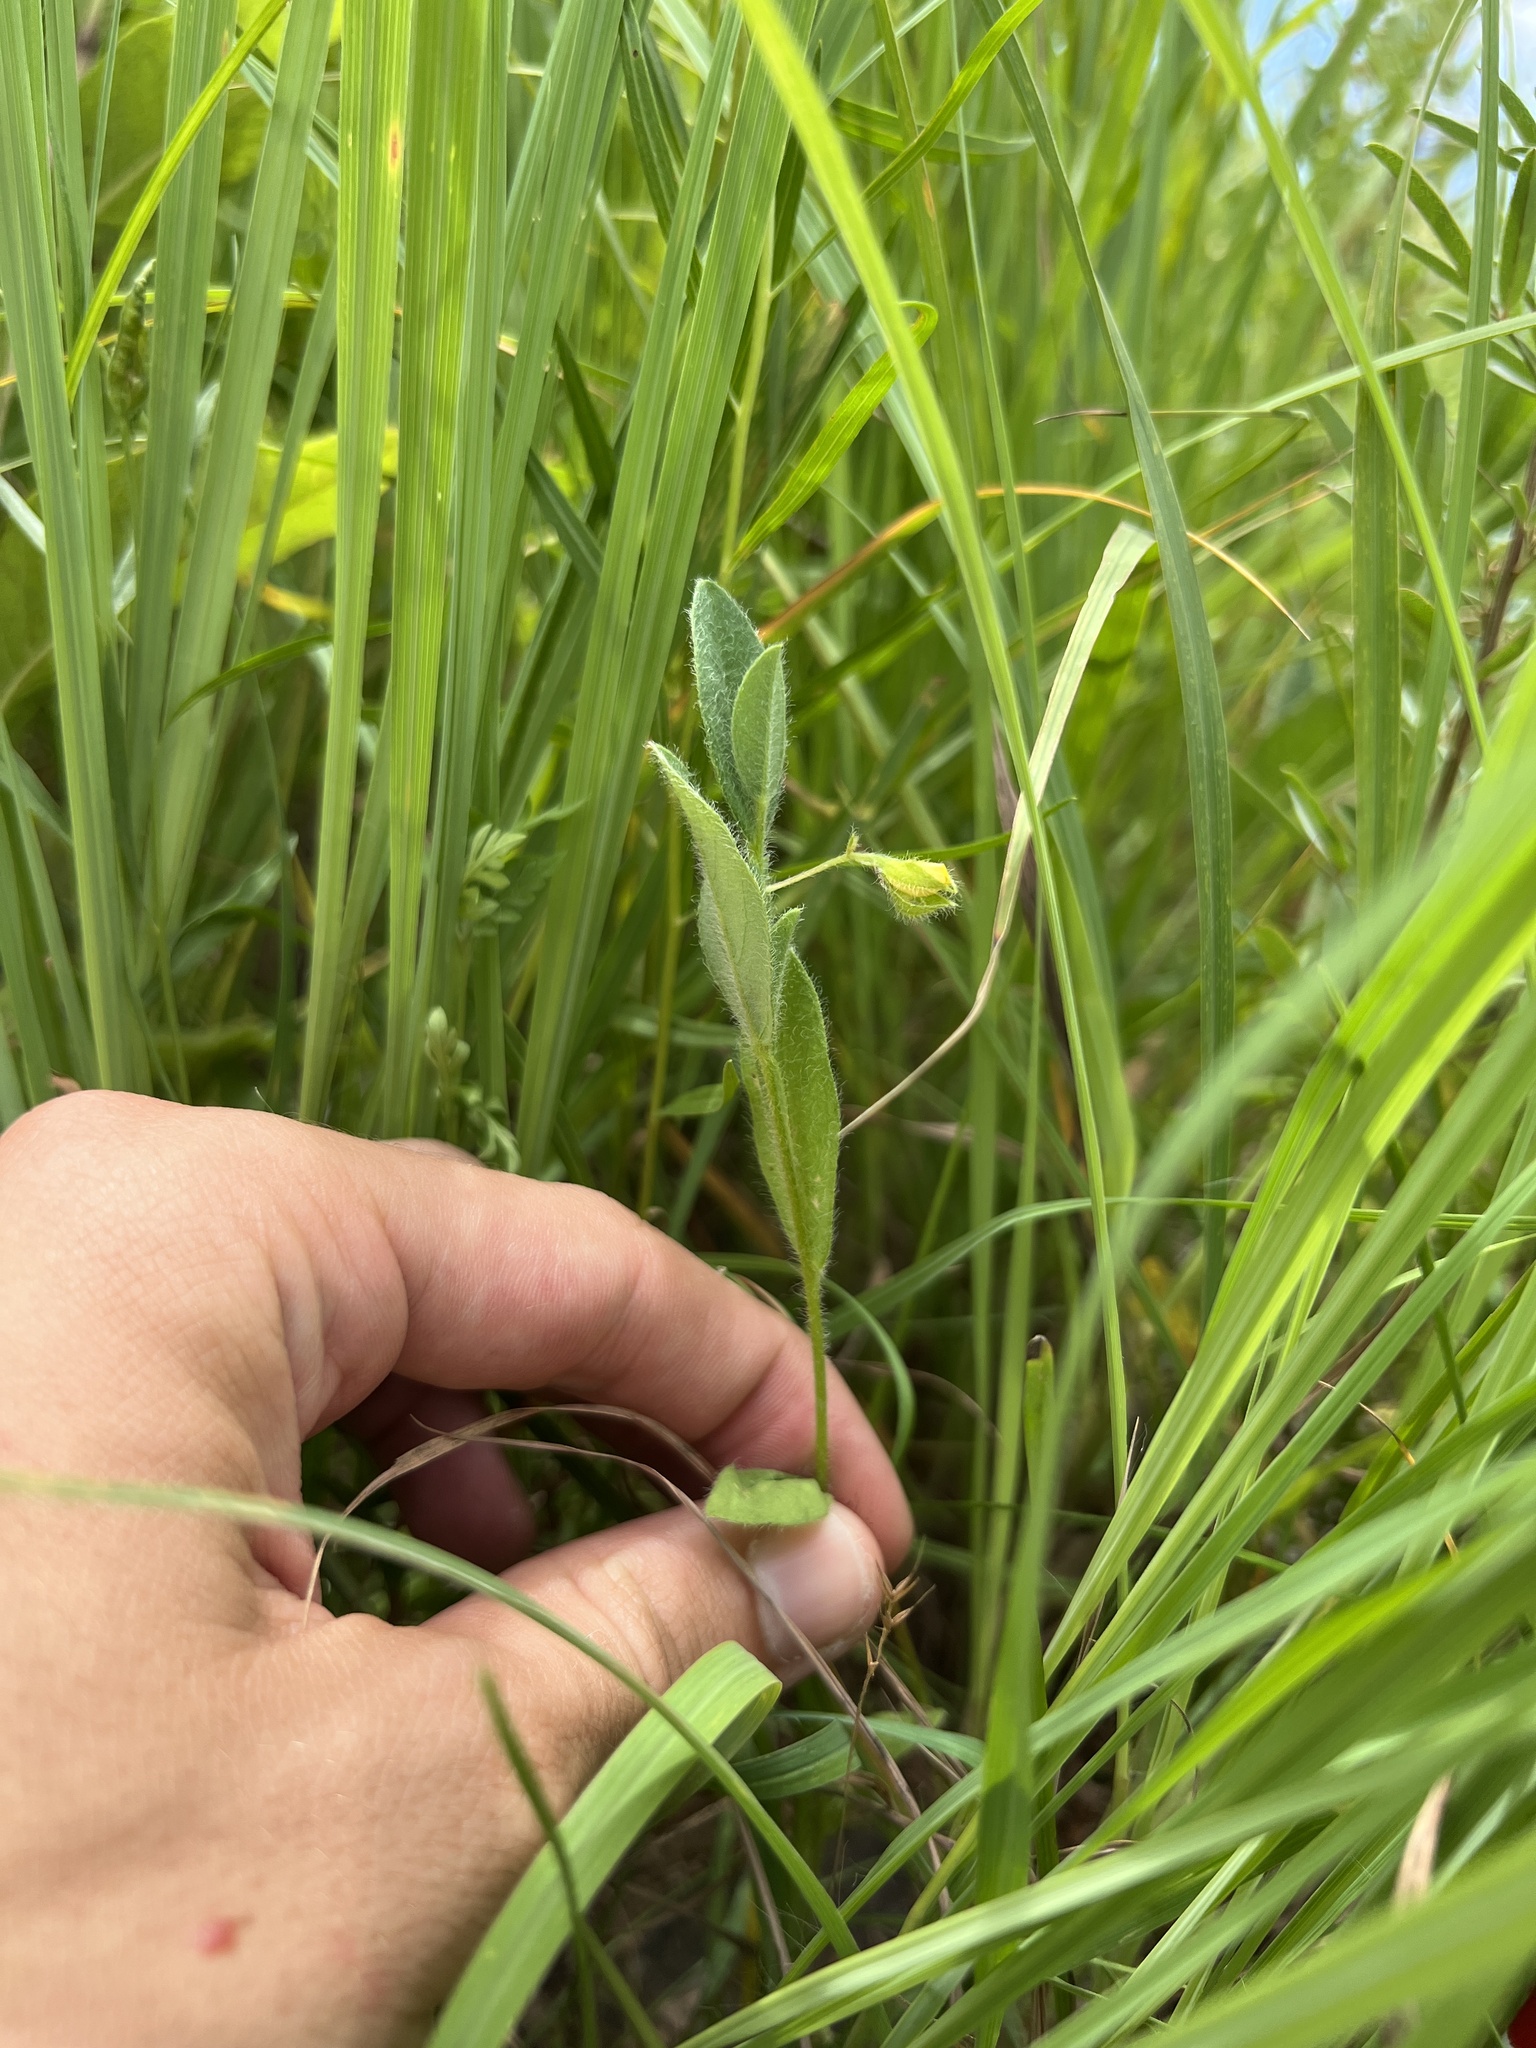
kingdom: Plantae
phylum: Tracheophyta
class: Magnoliopsida
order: Fabales
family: Fabaceae
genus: Crotalaria
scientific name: Crotalaria sagittalis
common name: Arrowhead rattlebox
